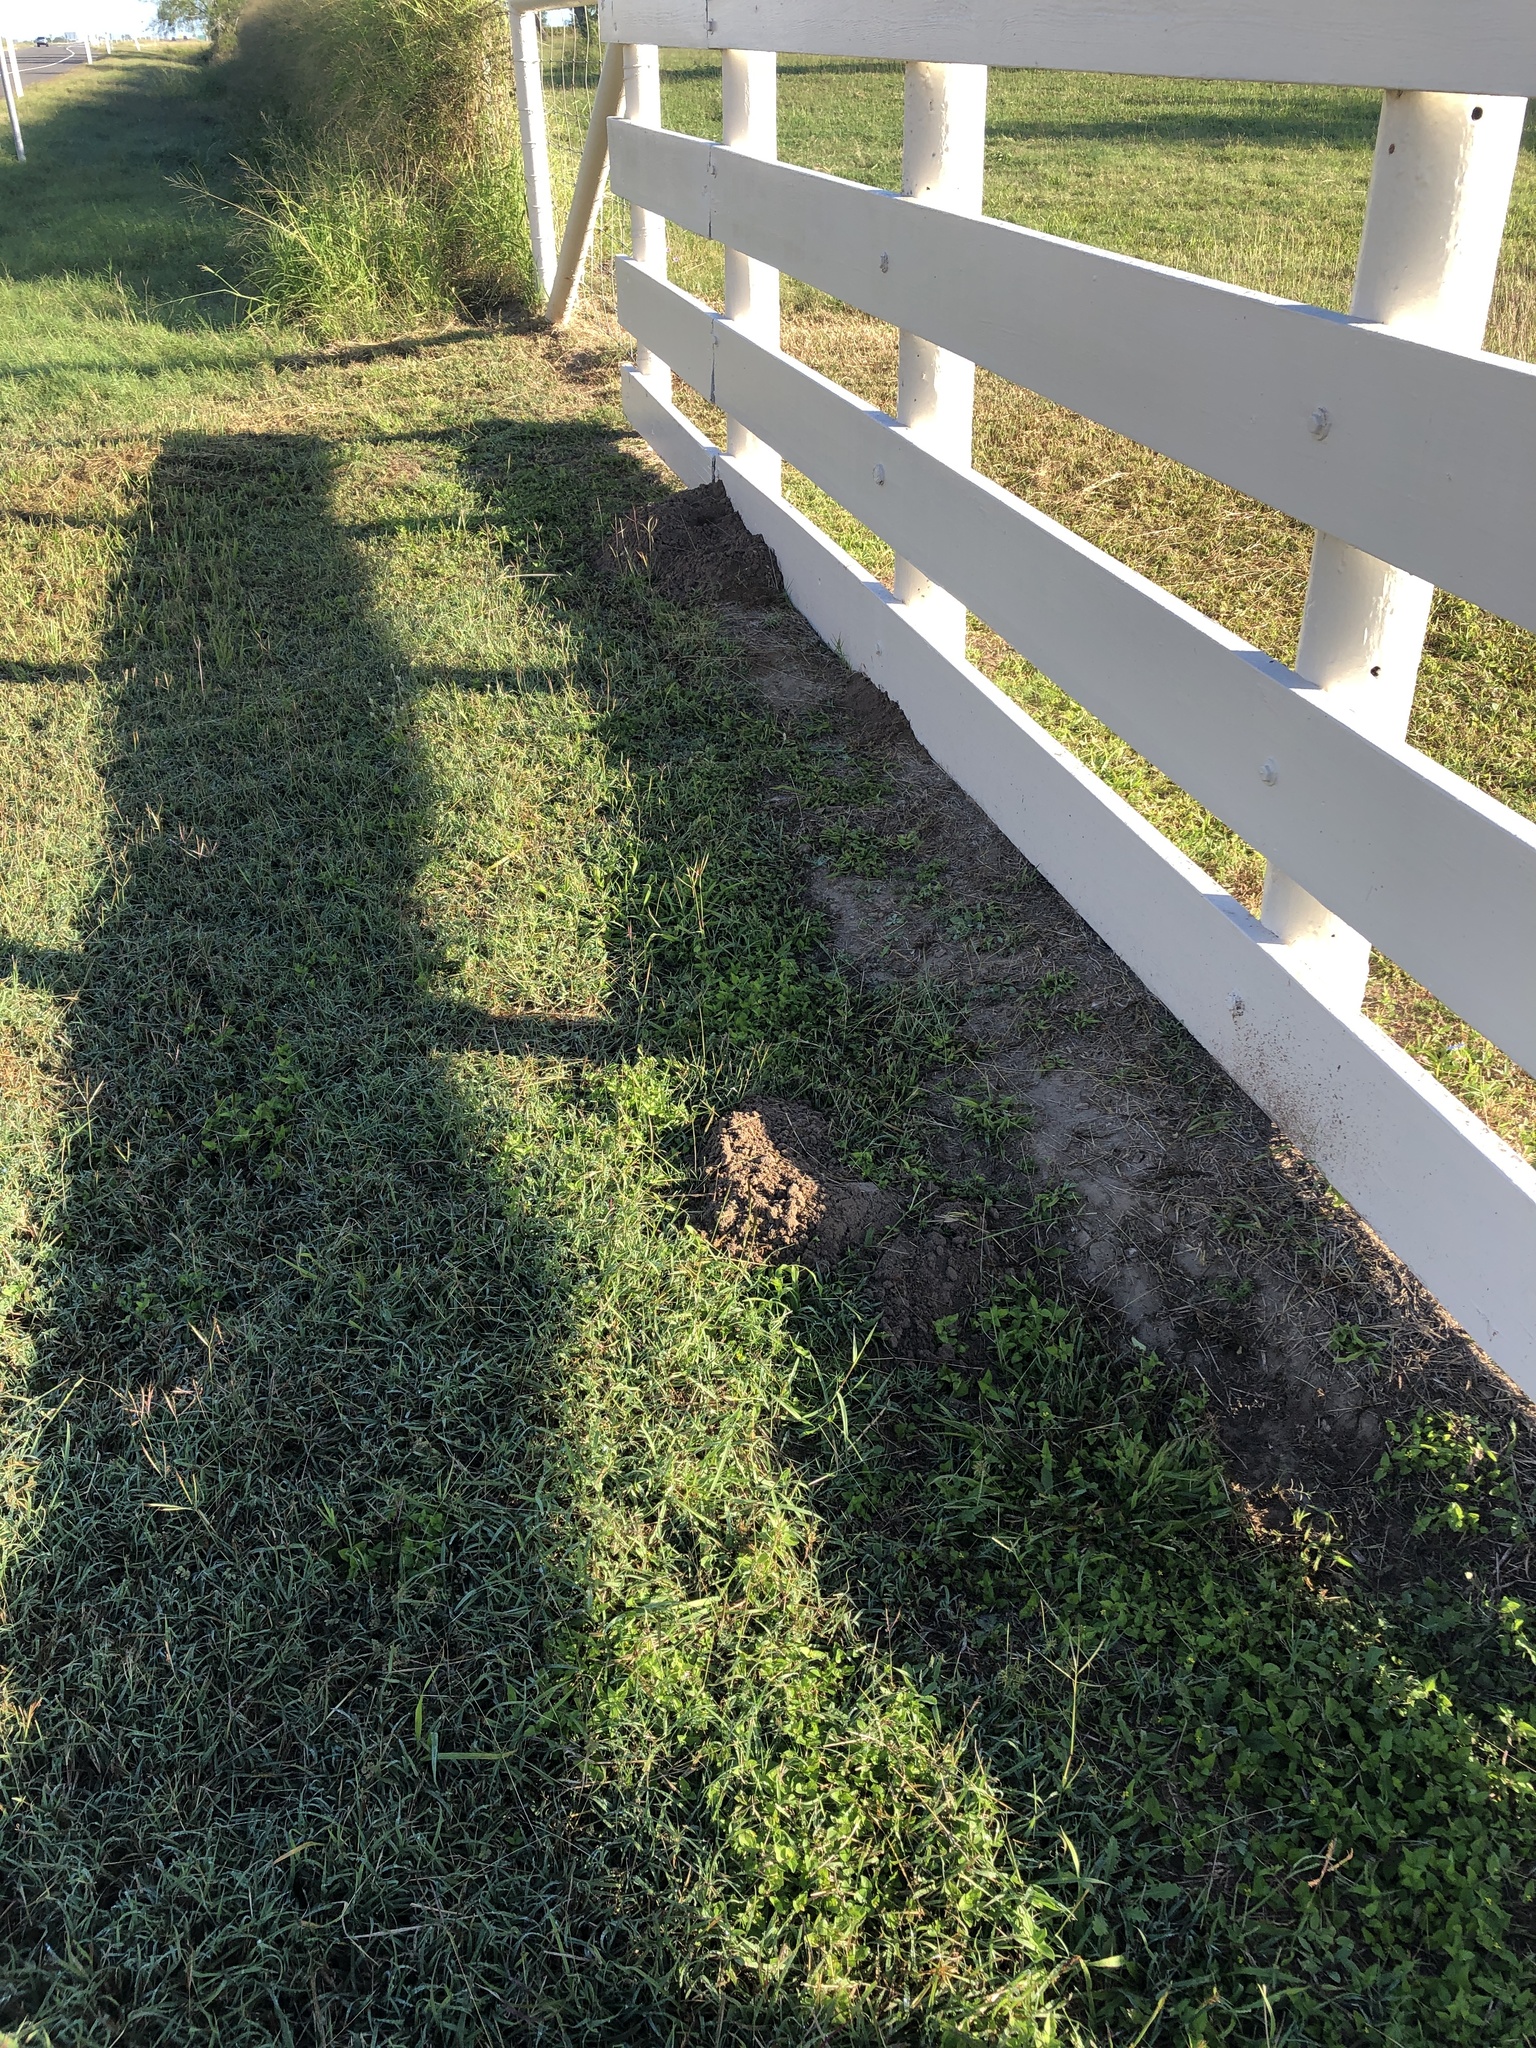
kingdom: Animalia
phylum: Chordata
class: Mammalia
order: Rodentia
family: Geomyidae
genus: Geomys
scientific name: Geomys personatus
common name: Texas pocket gopher
